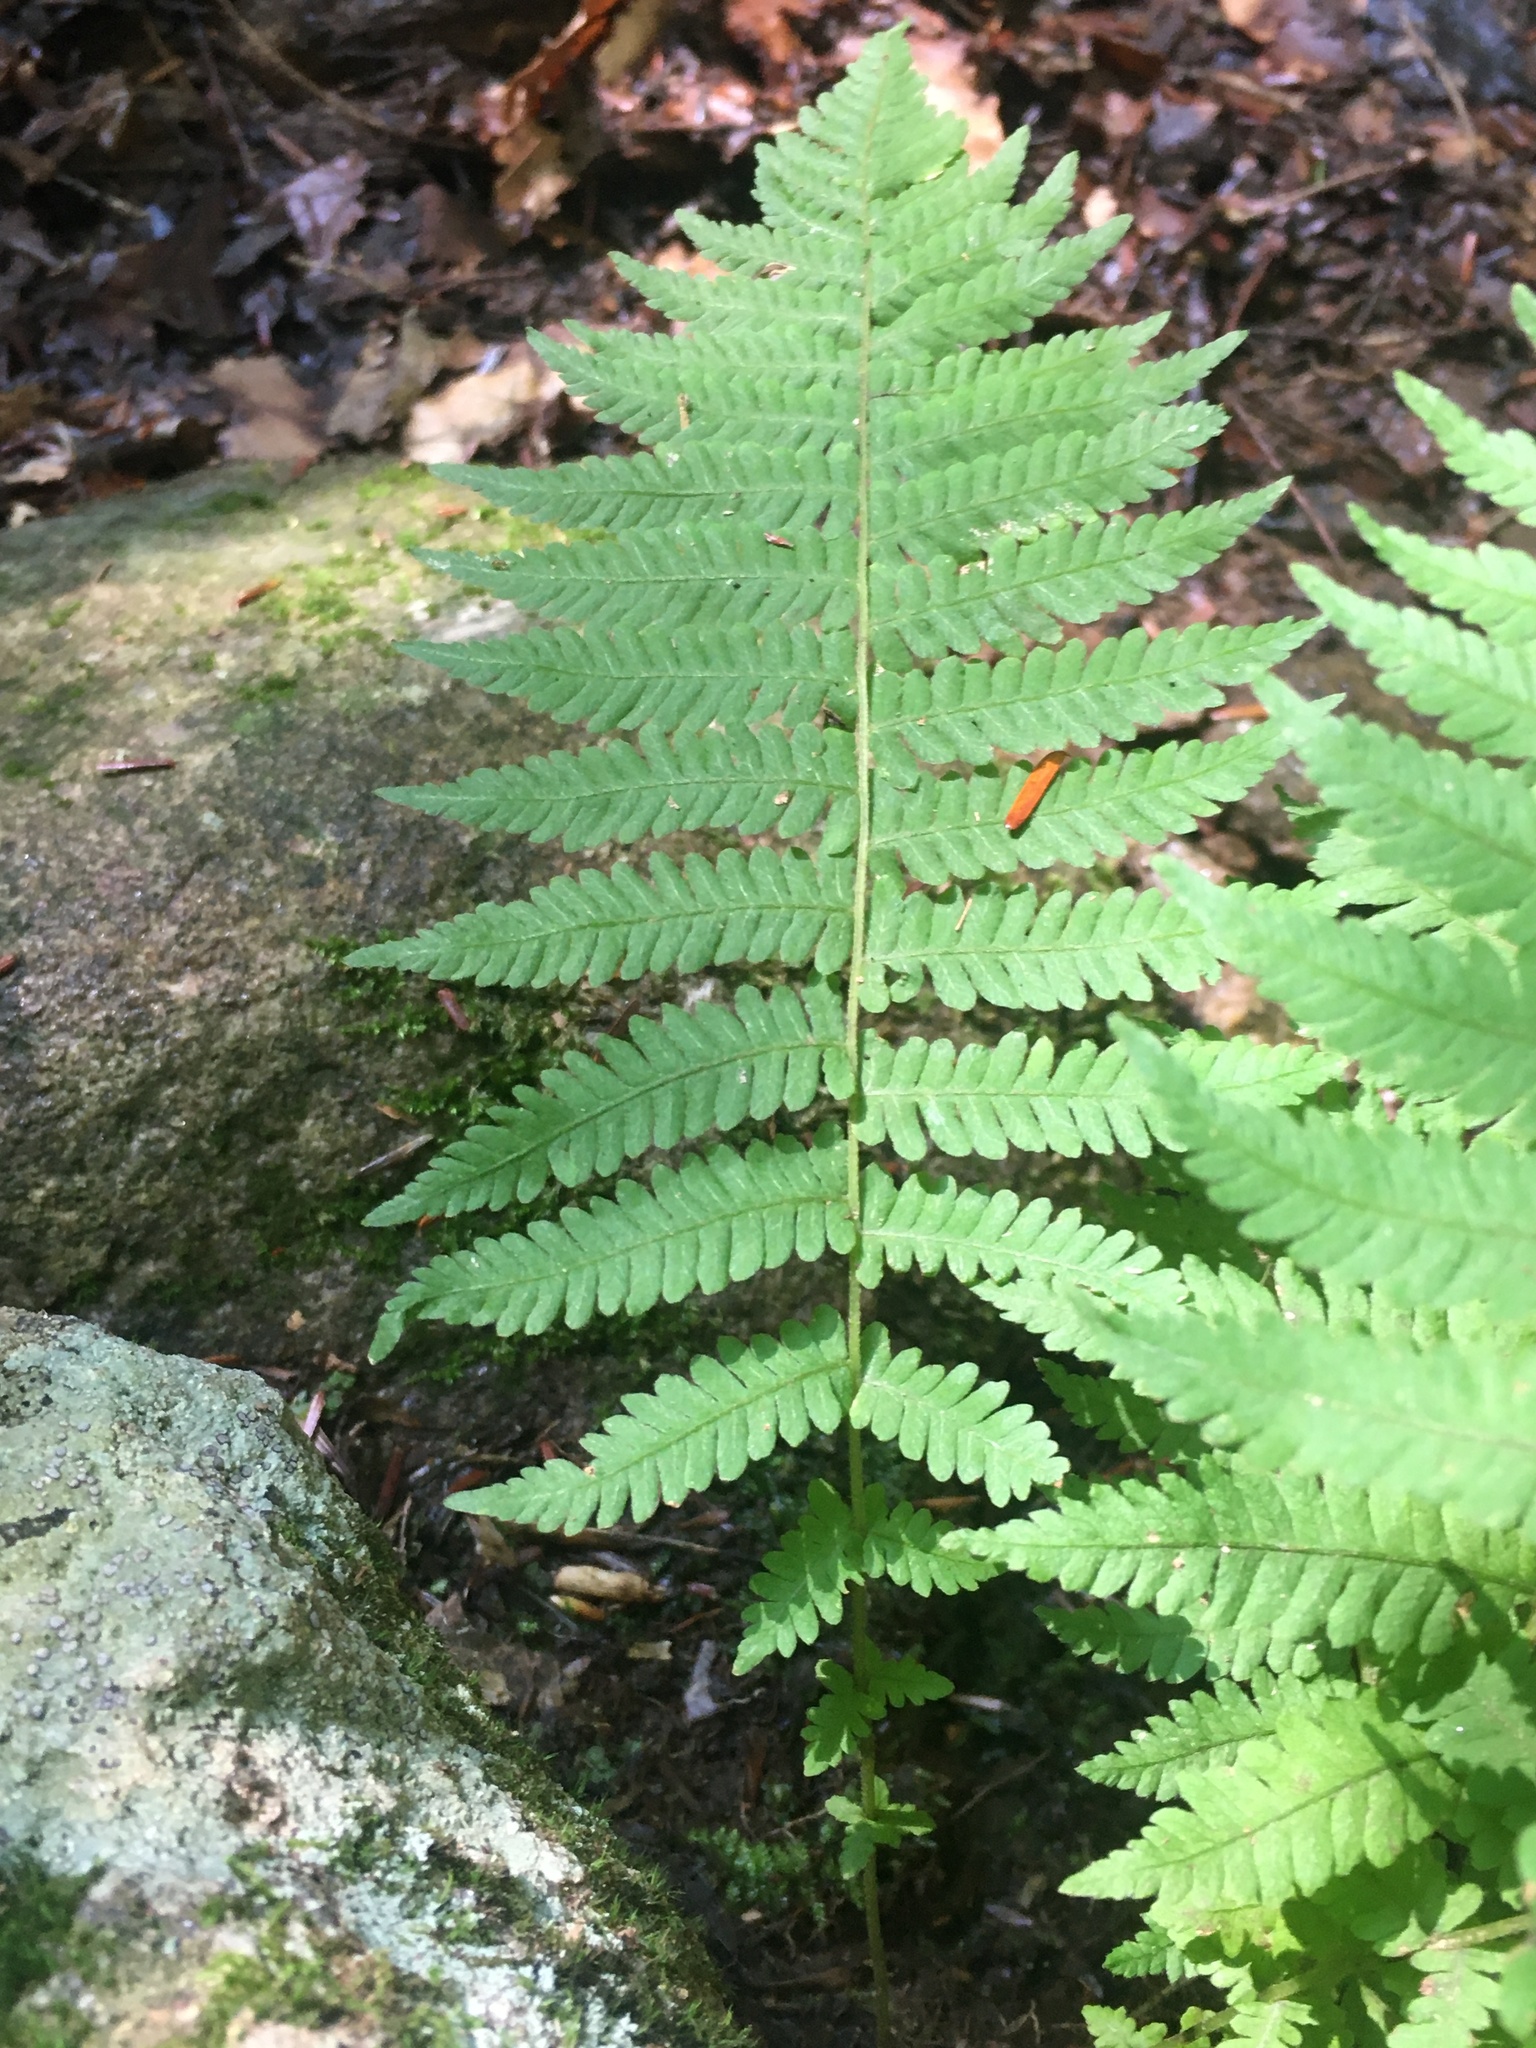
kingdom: Plantae
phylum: Tracheophyta
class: Polypodiopsida
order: Polypodiales
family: Thelypteridaceae
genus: Amauropelta
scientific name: Amauropelta noveboracensis
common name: New york fern
